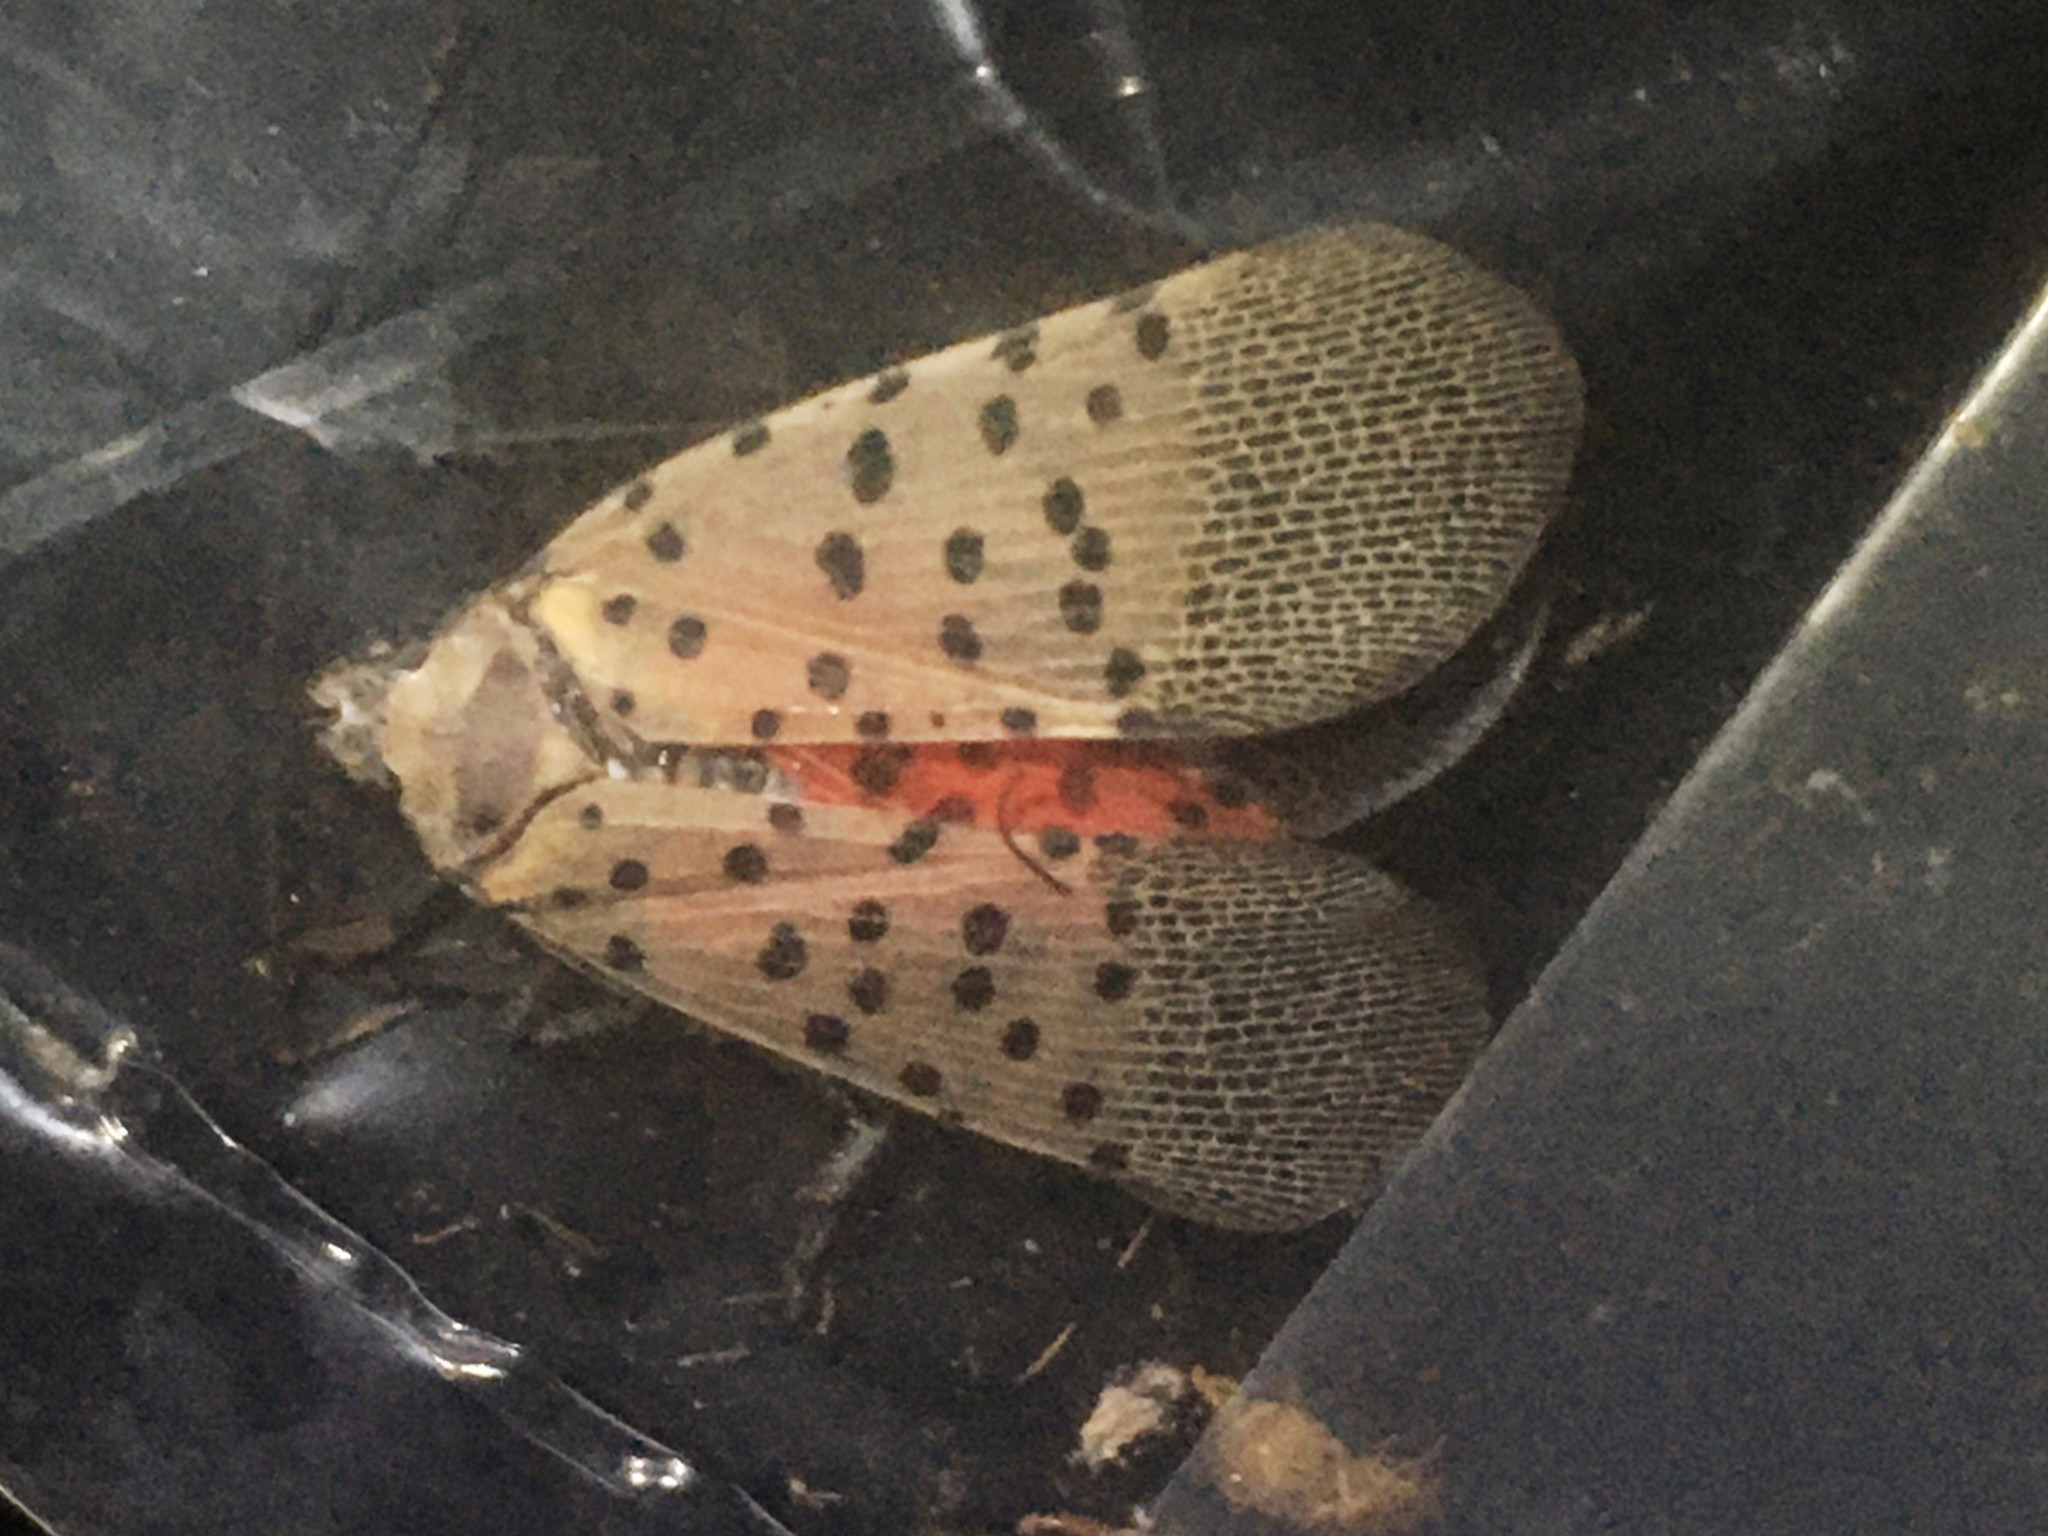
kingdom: Animalia
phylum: Arthropoda
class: Insecta
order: Hemiptera
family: Fulgoridae
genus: Lycorma
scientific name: Lycorma delicatula
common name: Spotted lanternfly
